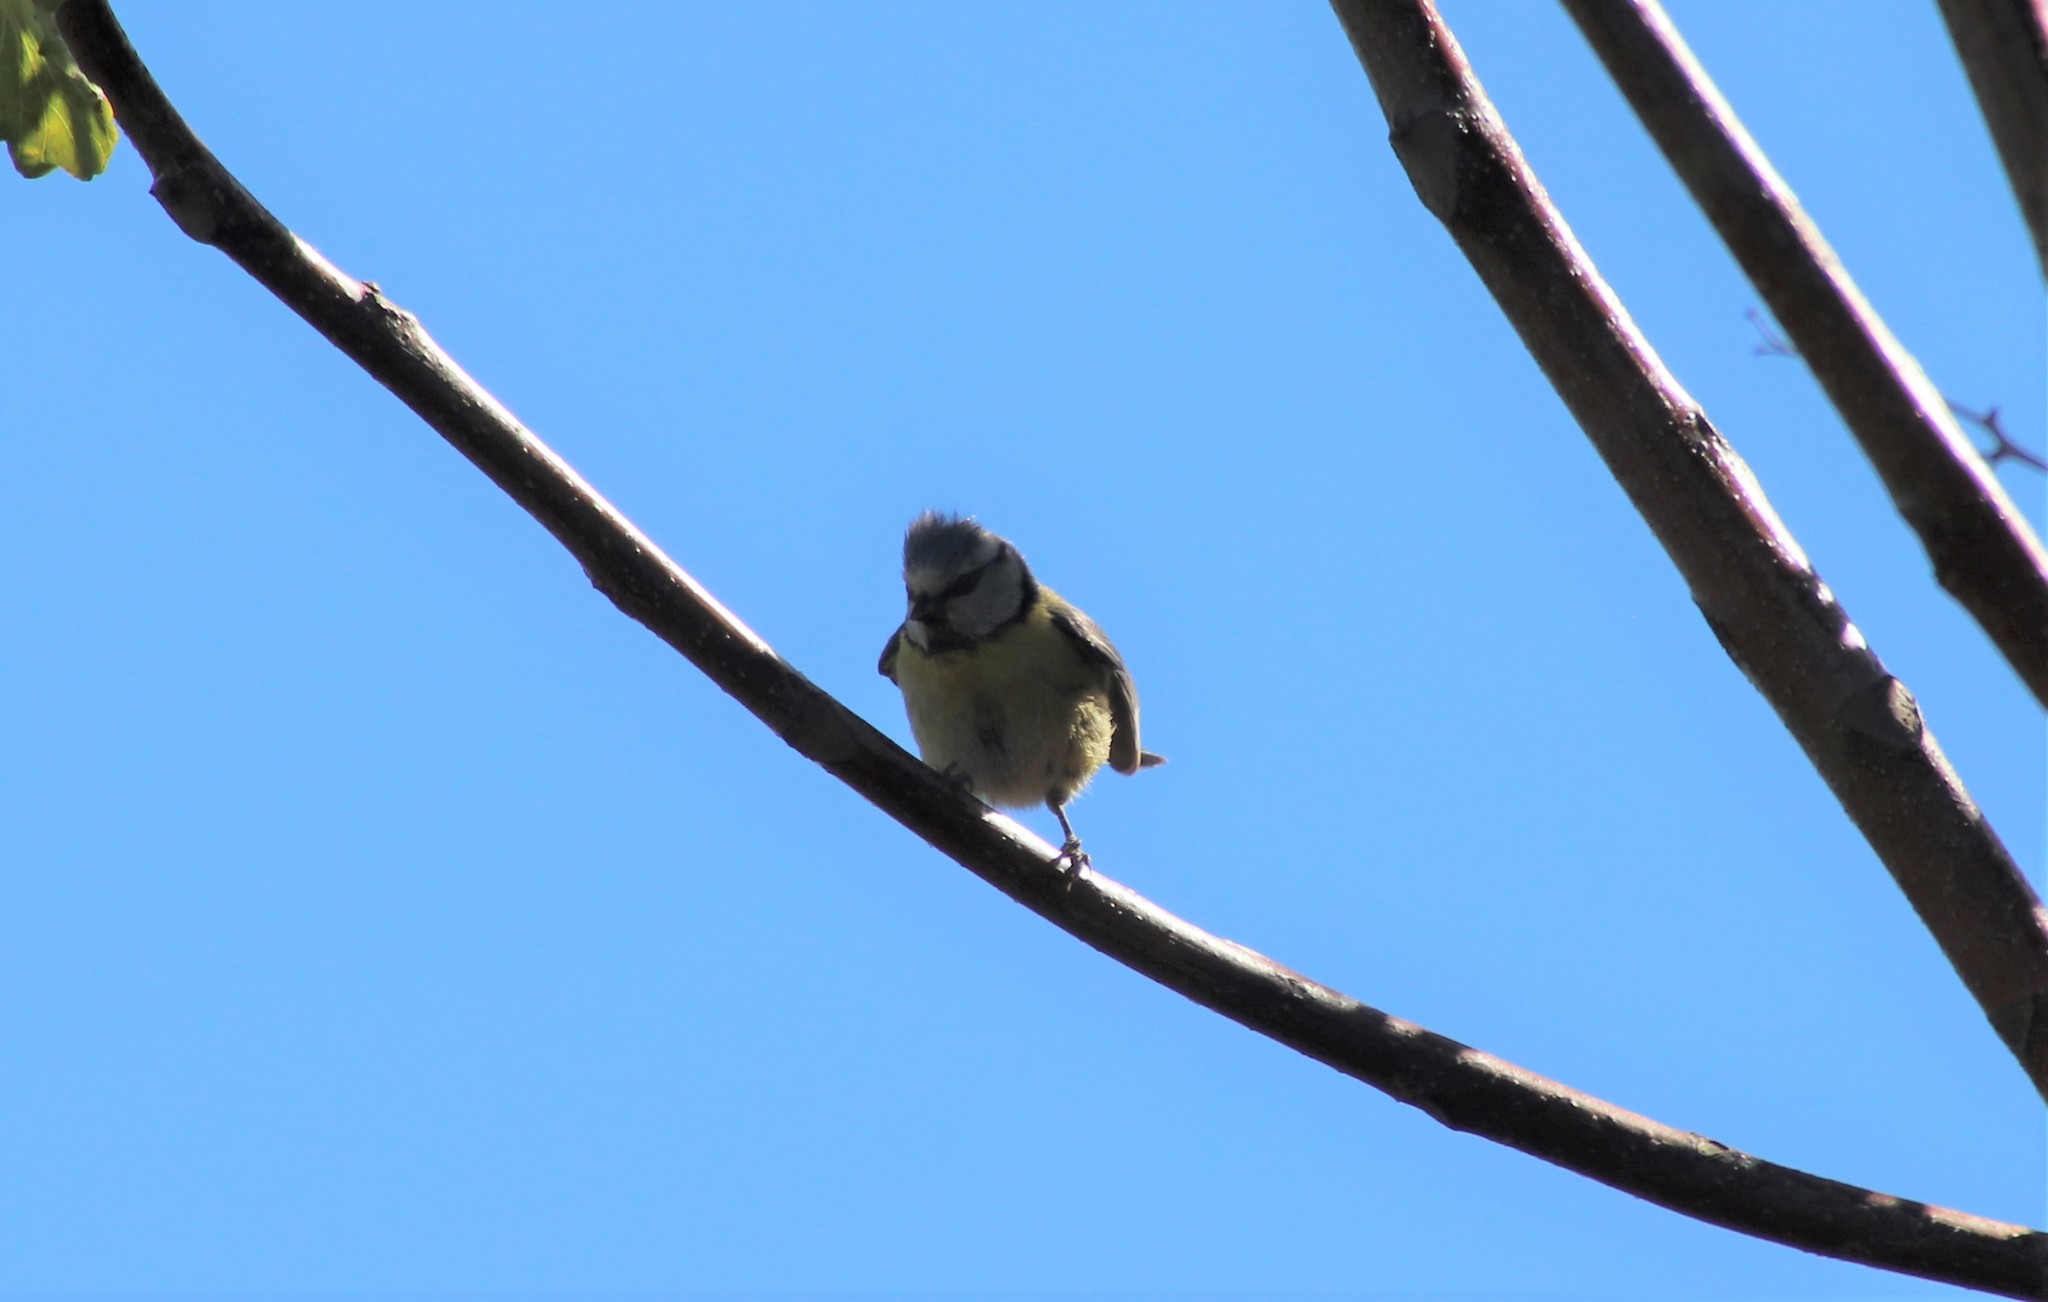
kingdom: Animalia
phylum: Chordata
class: Aves
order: Passeriformes
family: Paridae
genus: Cyanistes
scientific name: Cyanistes caeruleus
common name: Eurasian blue tit
